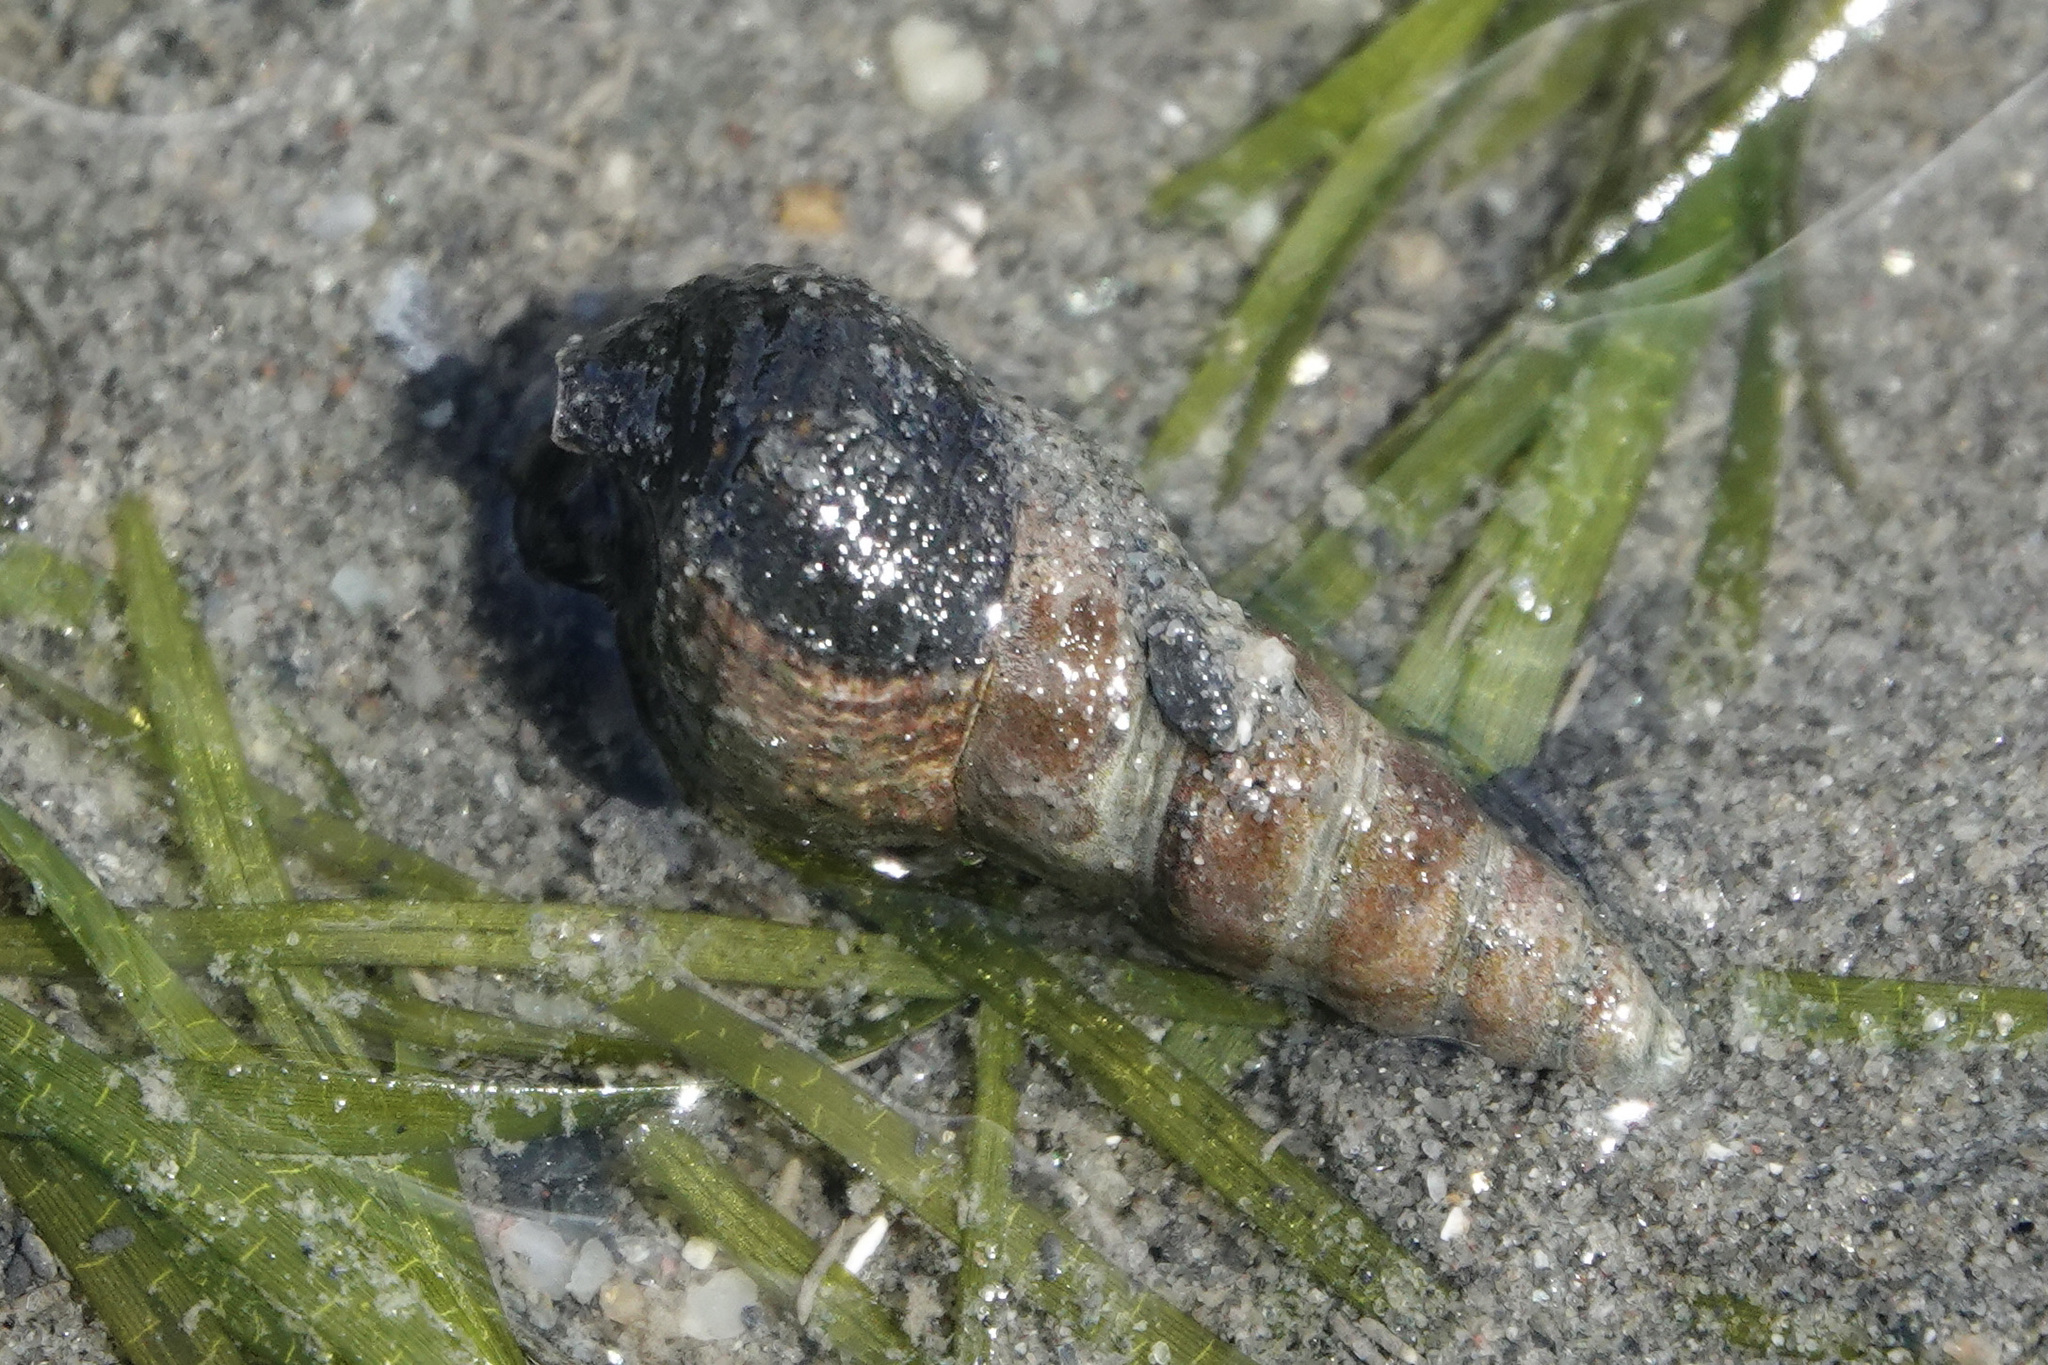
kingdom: Animalia
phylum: Mollusca
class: Gastropoda
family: Batillariidae
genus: Batillaria
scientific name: Batillaria attramentaria
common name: Japanese false cerith
